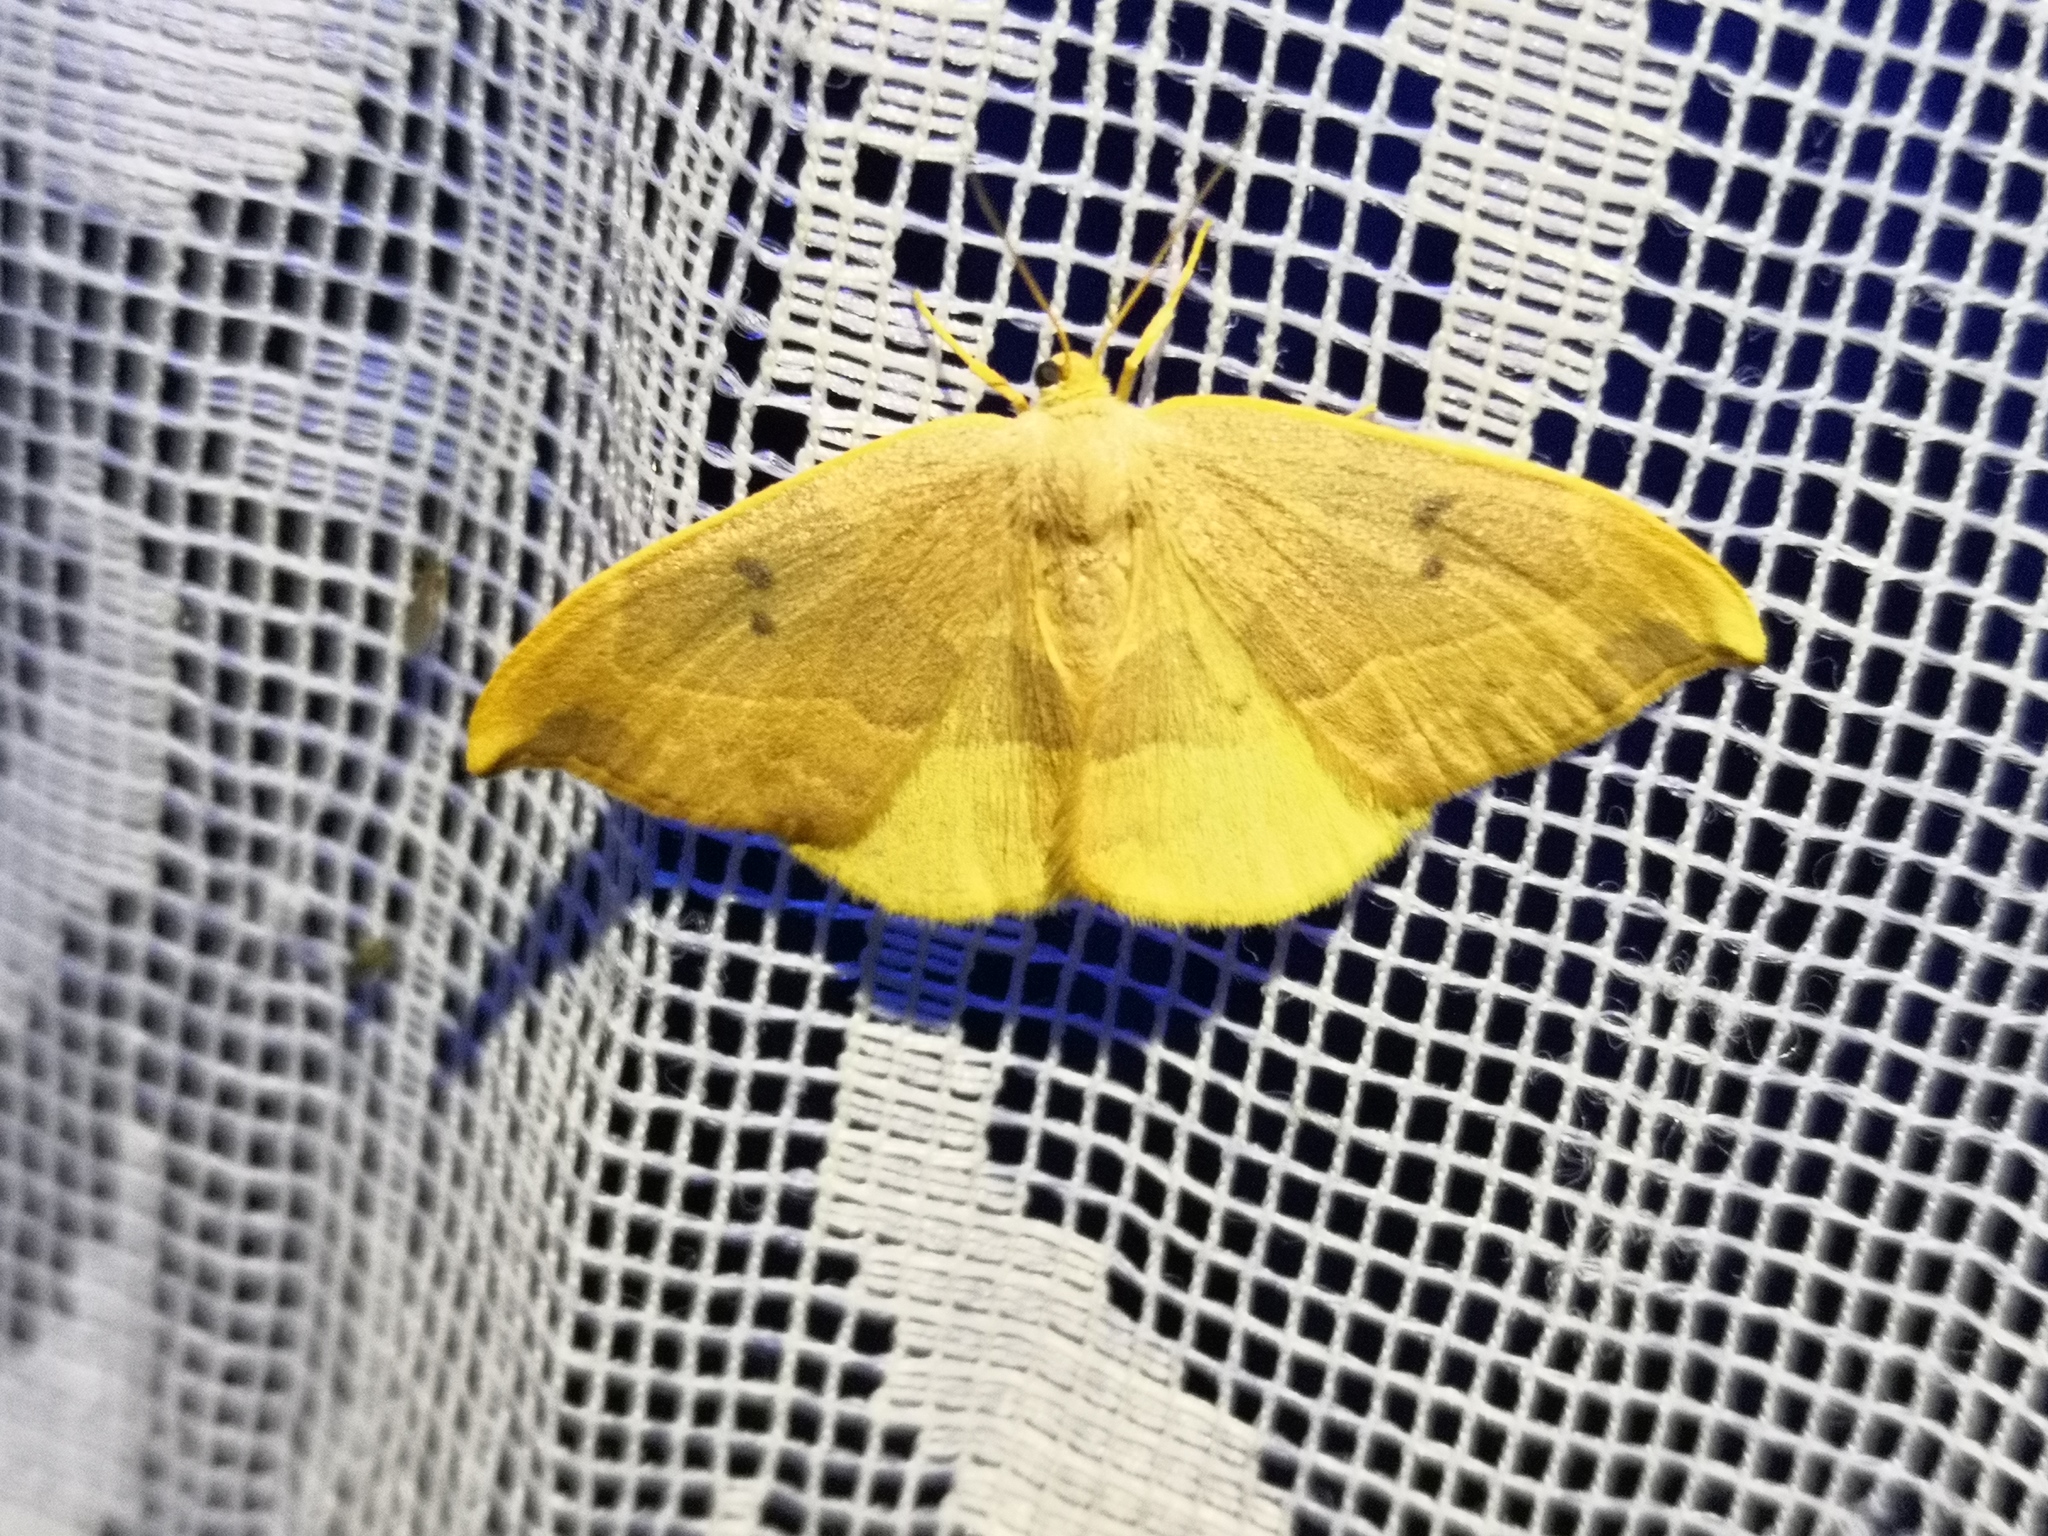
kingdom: Animalia
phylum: Arthropoda
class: Insecta
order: Lepidoptera
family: Drepanidae
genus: Watsonalla
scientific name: Watsonalla binaria
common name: Oak hook-tip
